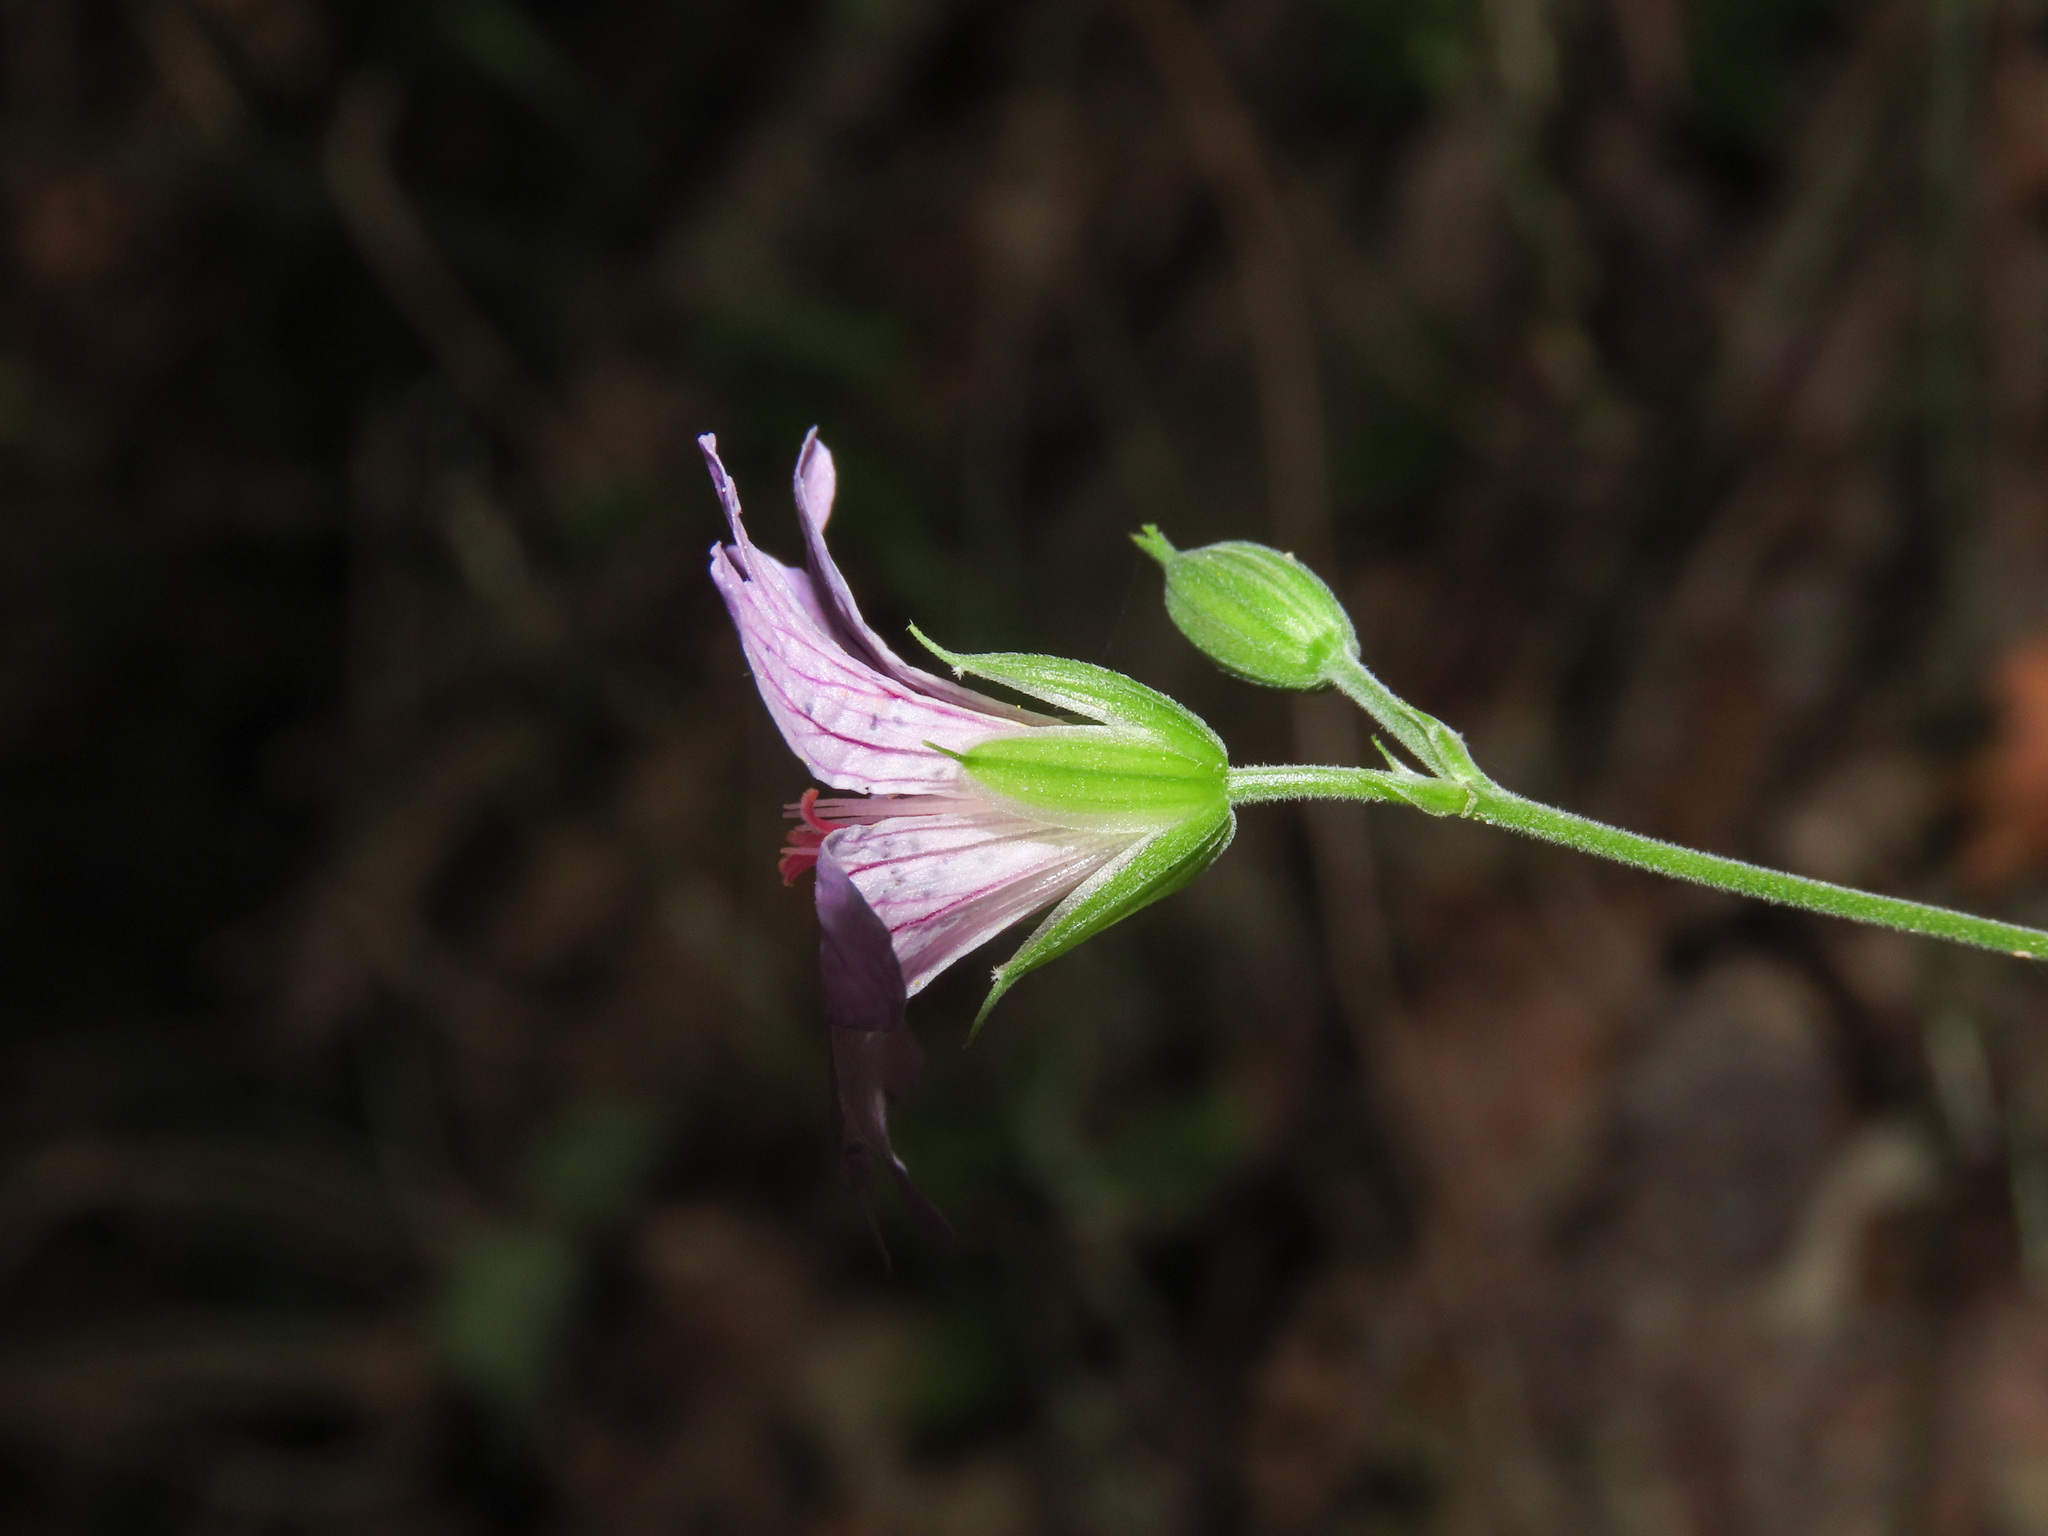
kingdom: Plantae
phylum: Tracheophyta
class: Magnoliopsida
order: Geraniales
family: Geraniaceae
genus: Geranium
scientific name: Geranium nodosum
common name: Knotted crane's-bill
